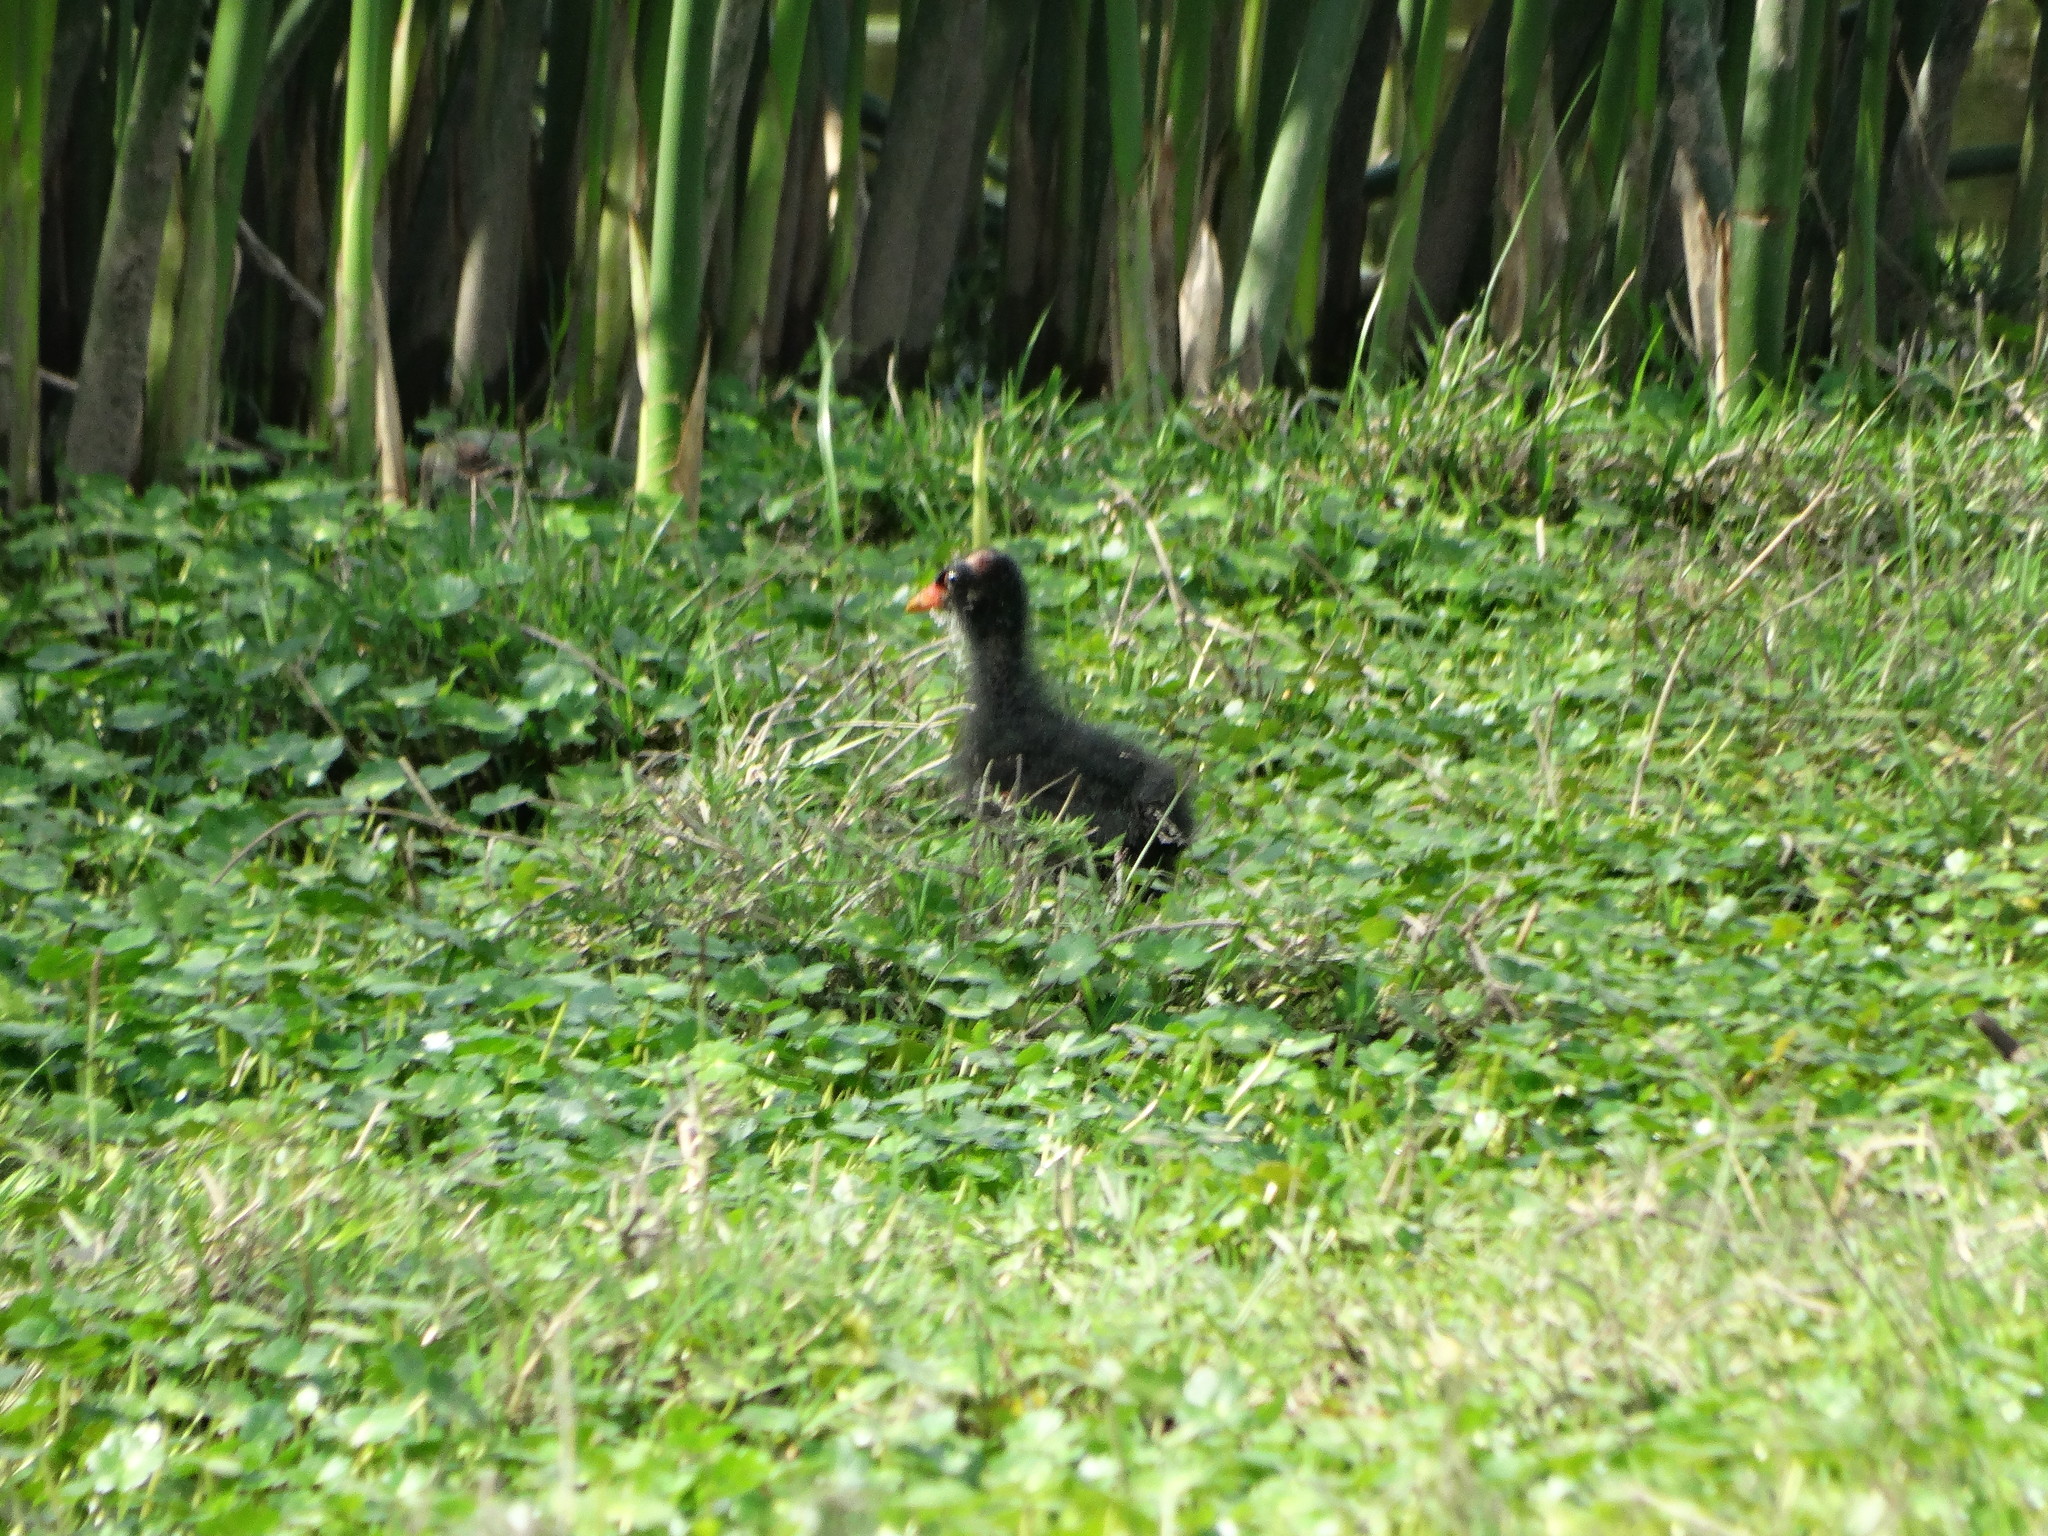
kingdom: Animalia
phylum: Chordata
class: Aves
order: Gruiformes
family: Rallidae
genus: Gallinula
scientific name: Gallinula chloropus
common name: Common moorhen
